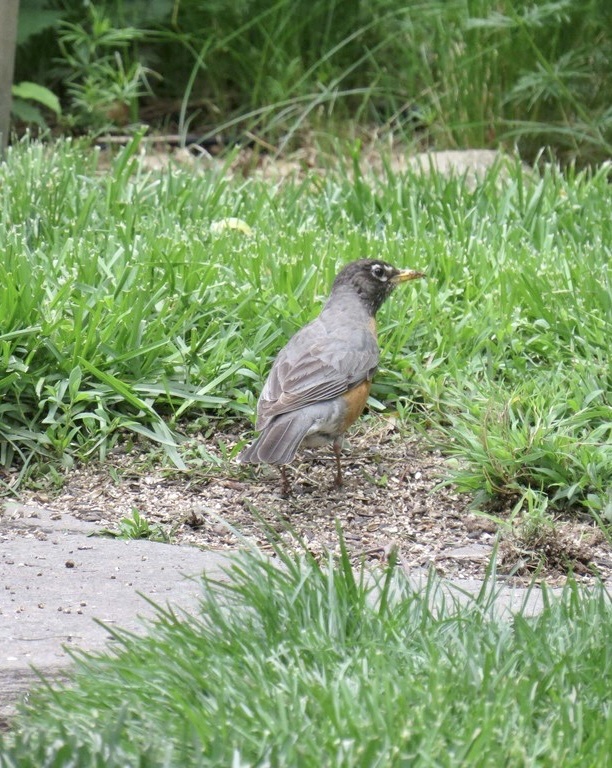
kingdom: Animalia
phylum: Chordata
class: Aves
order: Passeriformes
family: Turdidae
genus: Turdus
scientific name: Turdus migratorius
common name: American robin
